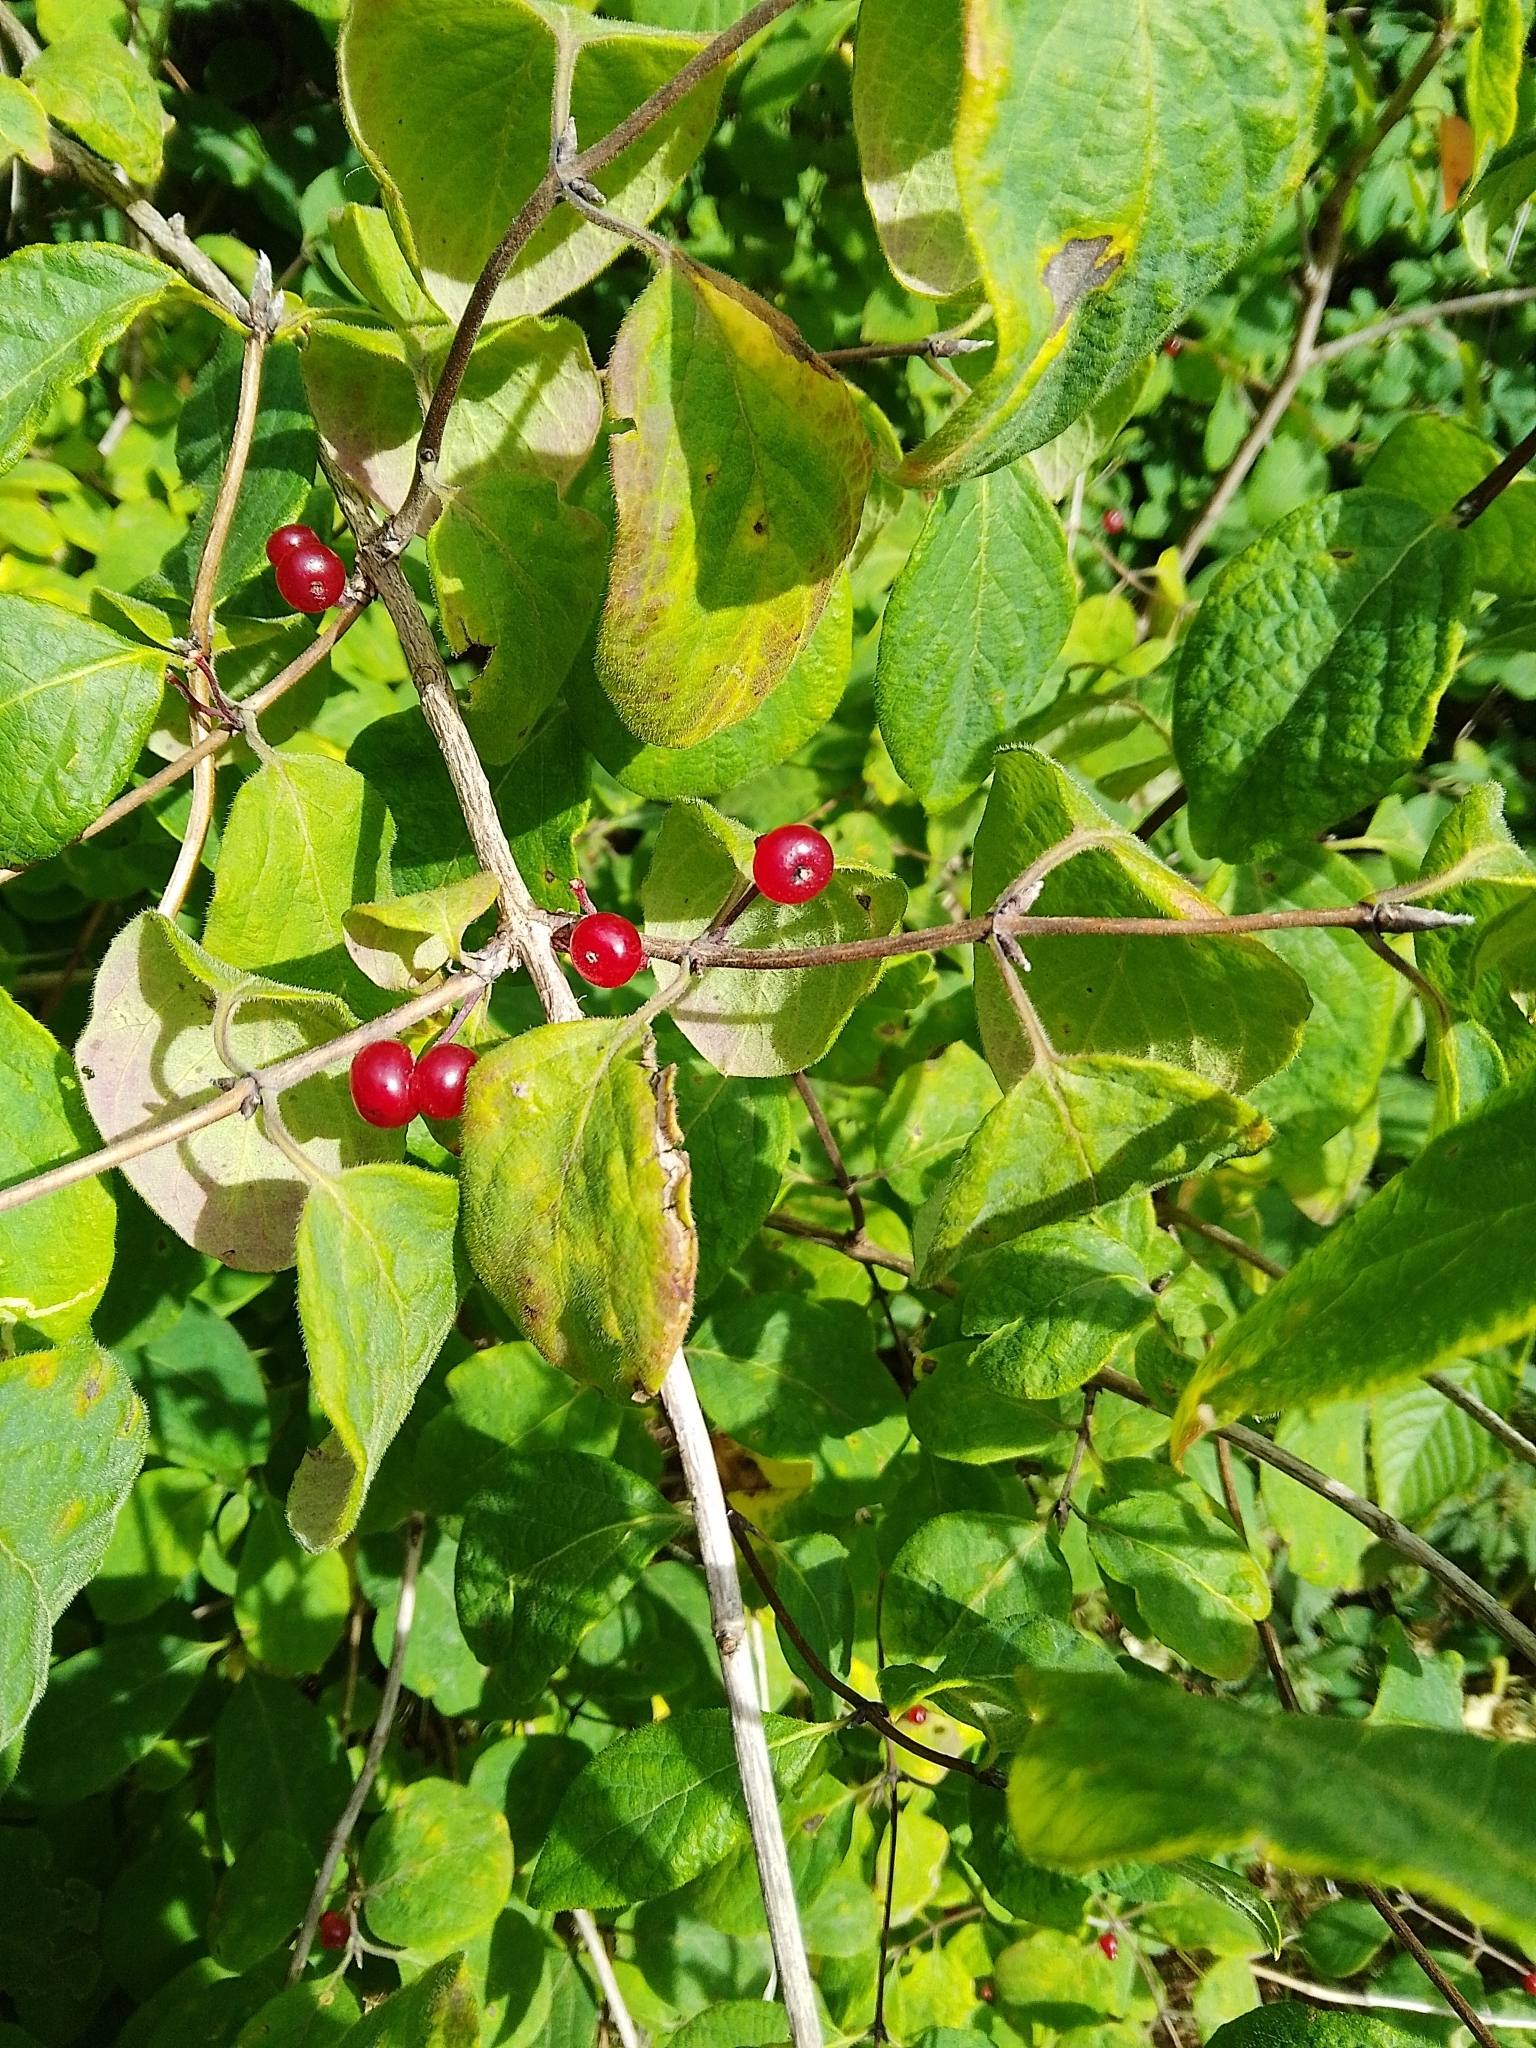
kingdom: Plantae
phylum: Tracheophyta
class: Magnoliopsida
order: Dipsacales
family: Caprifoliaceae
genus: Lonicera
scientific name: Lonicera xylosteum
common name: Fly honeysuckle
